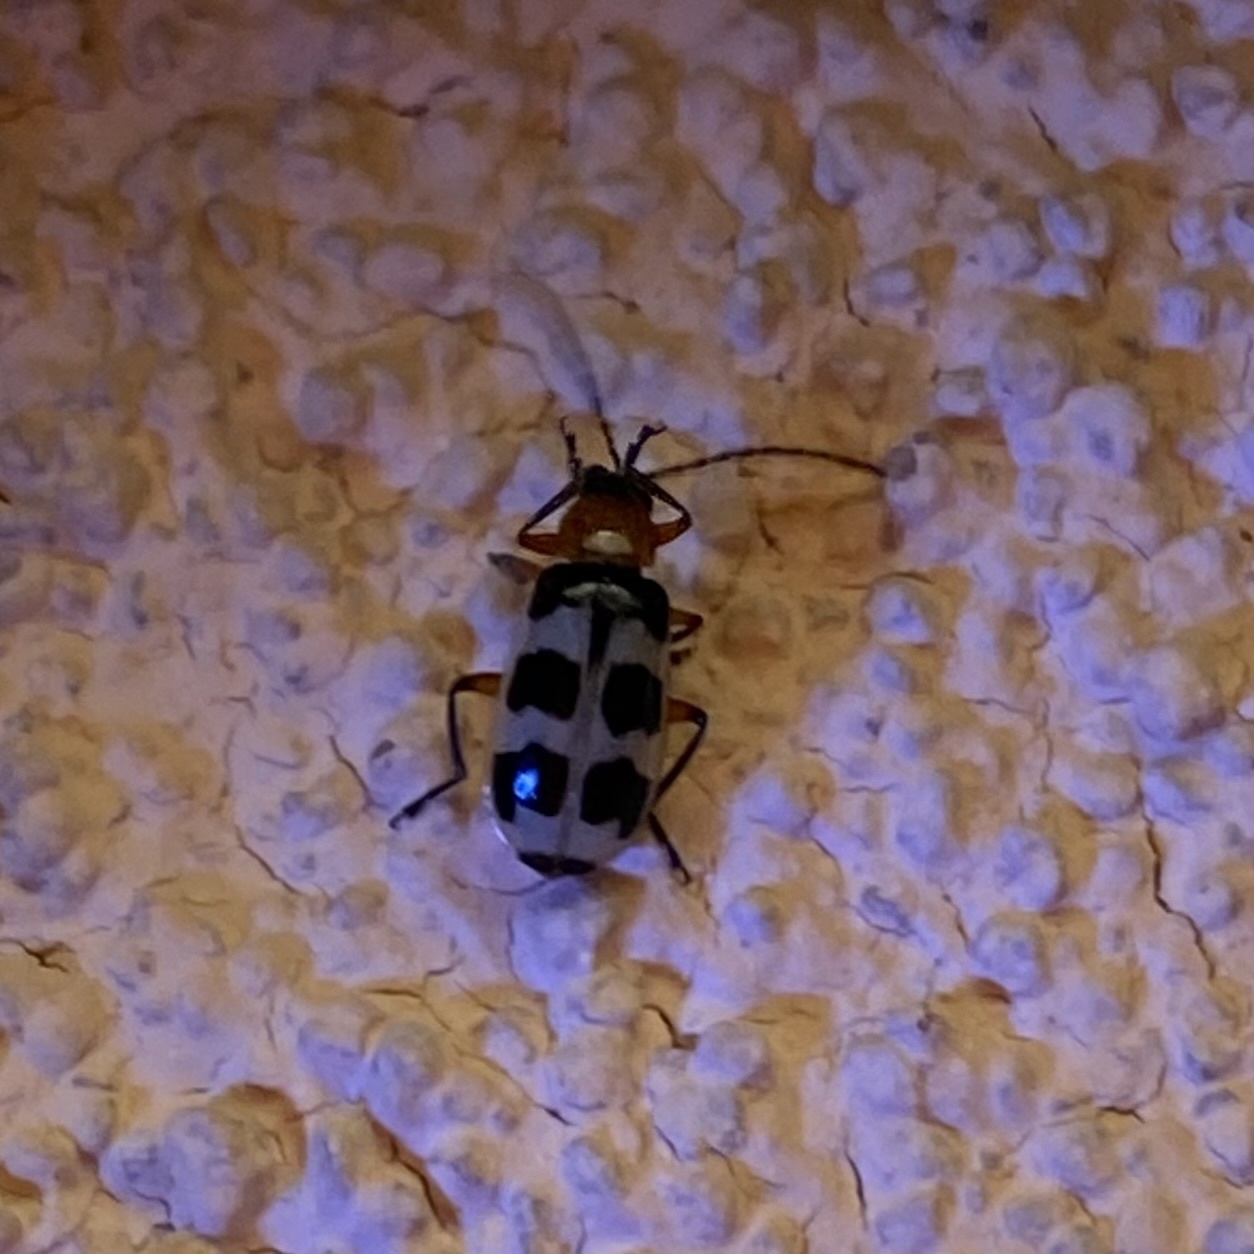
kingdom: Animalia
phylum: Arthropoda
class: Insecta
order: Coleoptera
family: Chrysomelidae
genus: Paranapiacaba
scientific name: Paranapiacaba tricincta
